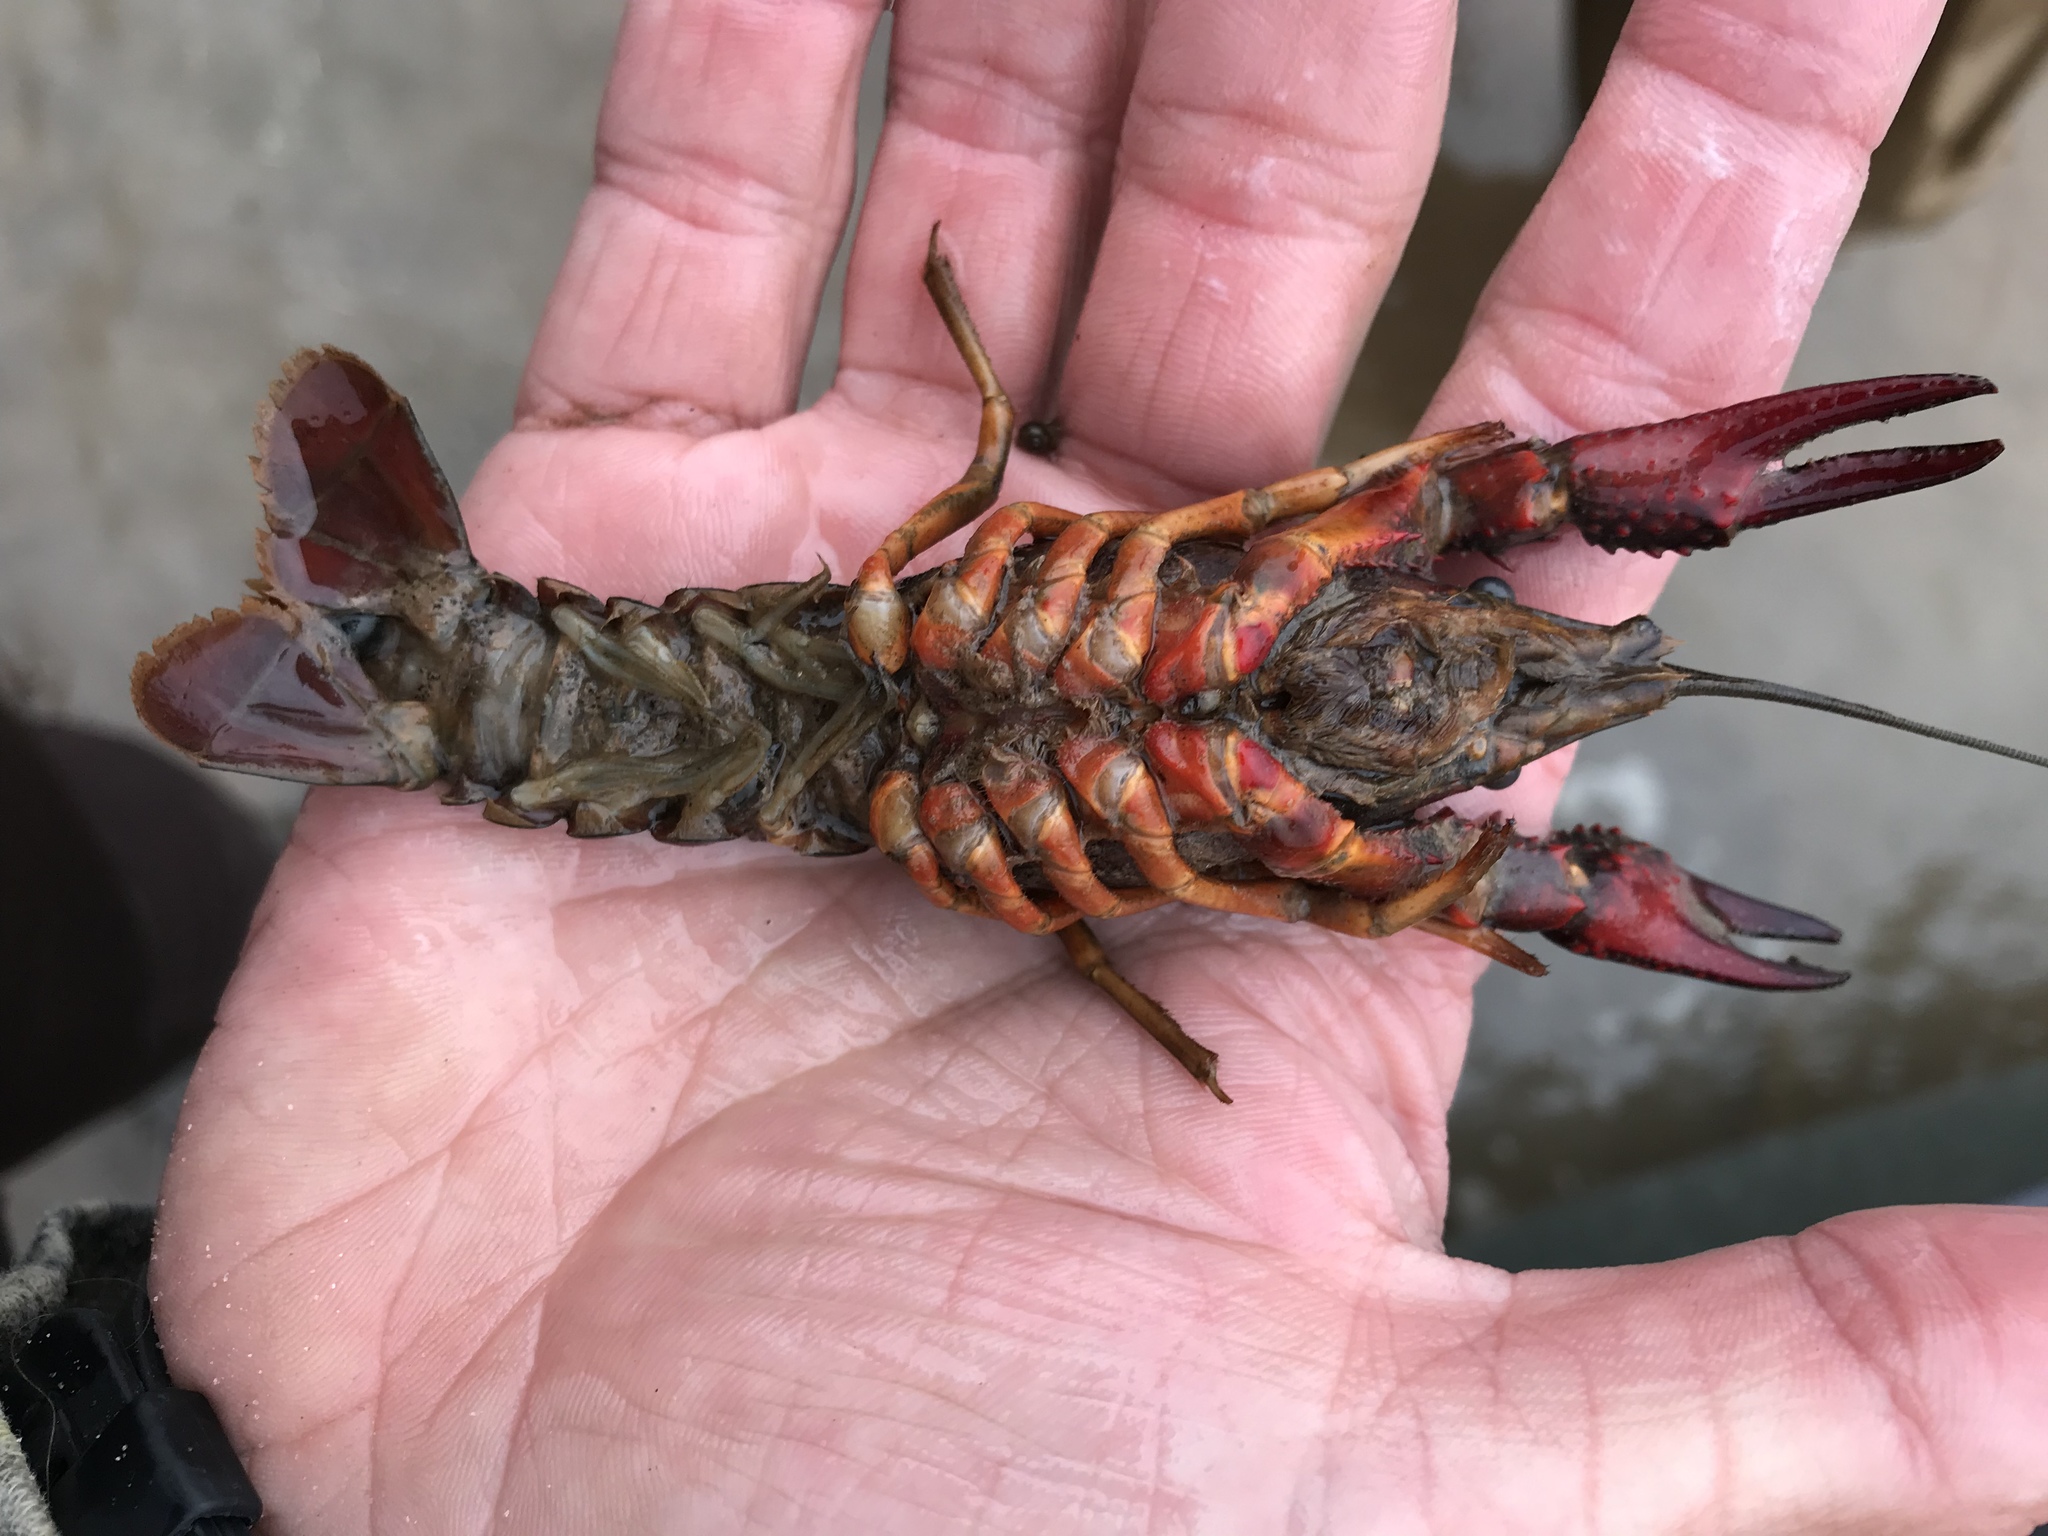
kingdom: Animalia
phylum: Arthropoda
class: Malacostraca
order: Decapoda
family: Cambaridae
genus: Procambarus
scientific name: Procambarus clarkii
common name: Red swamp crayfish
